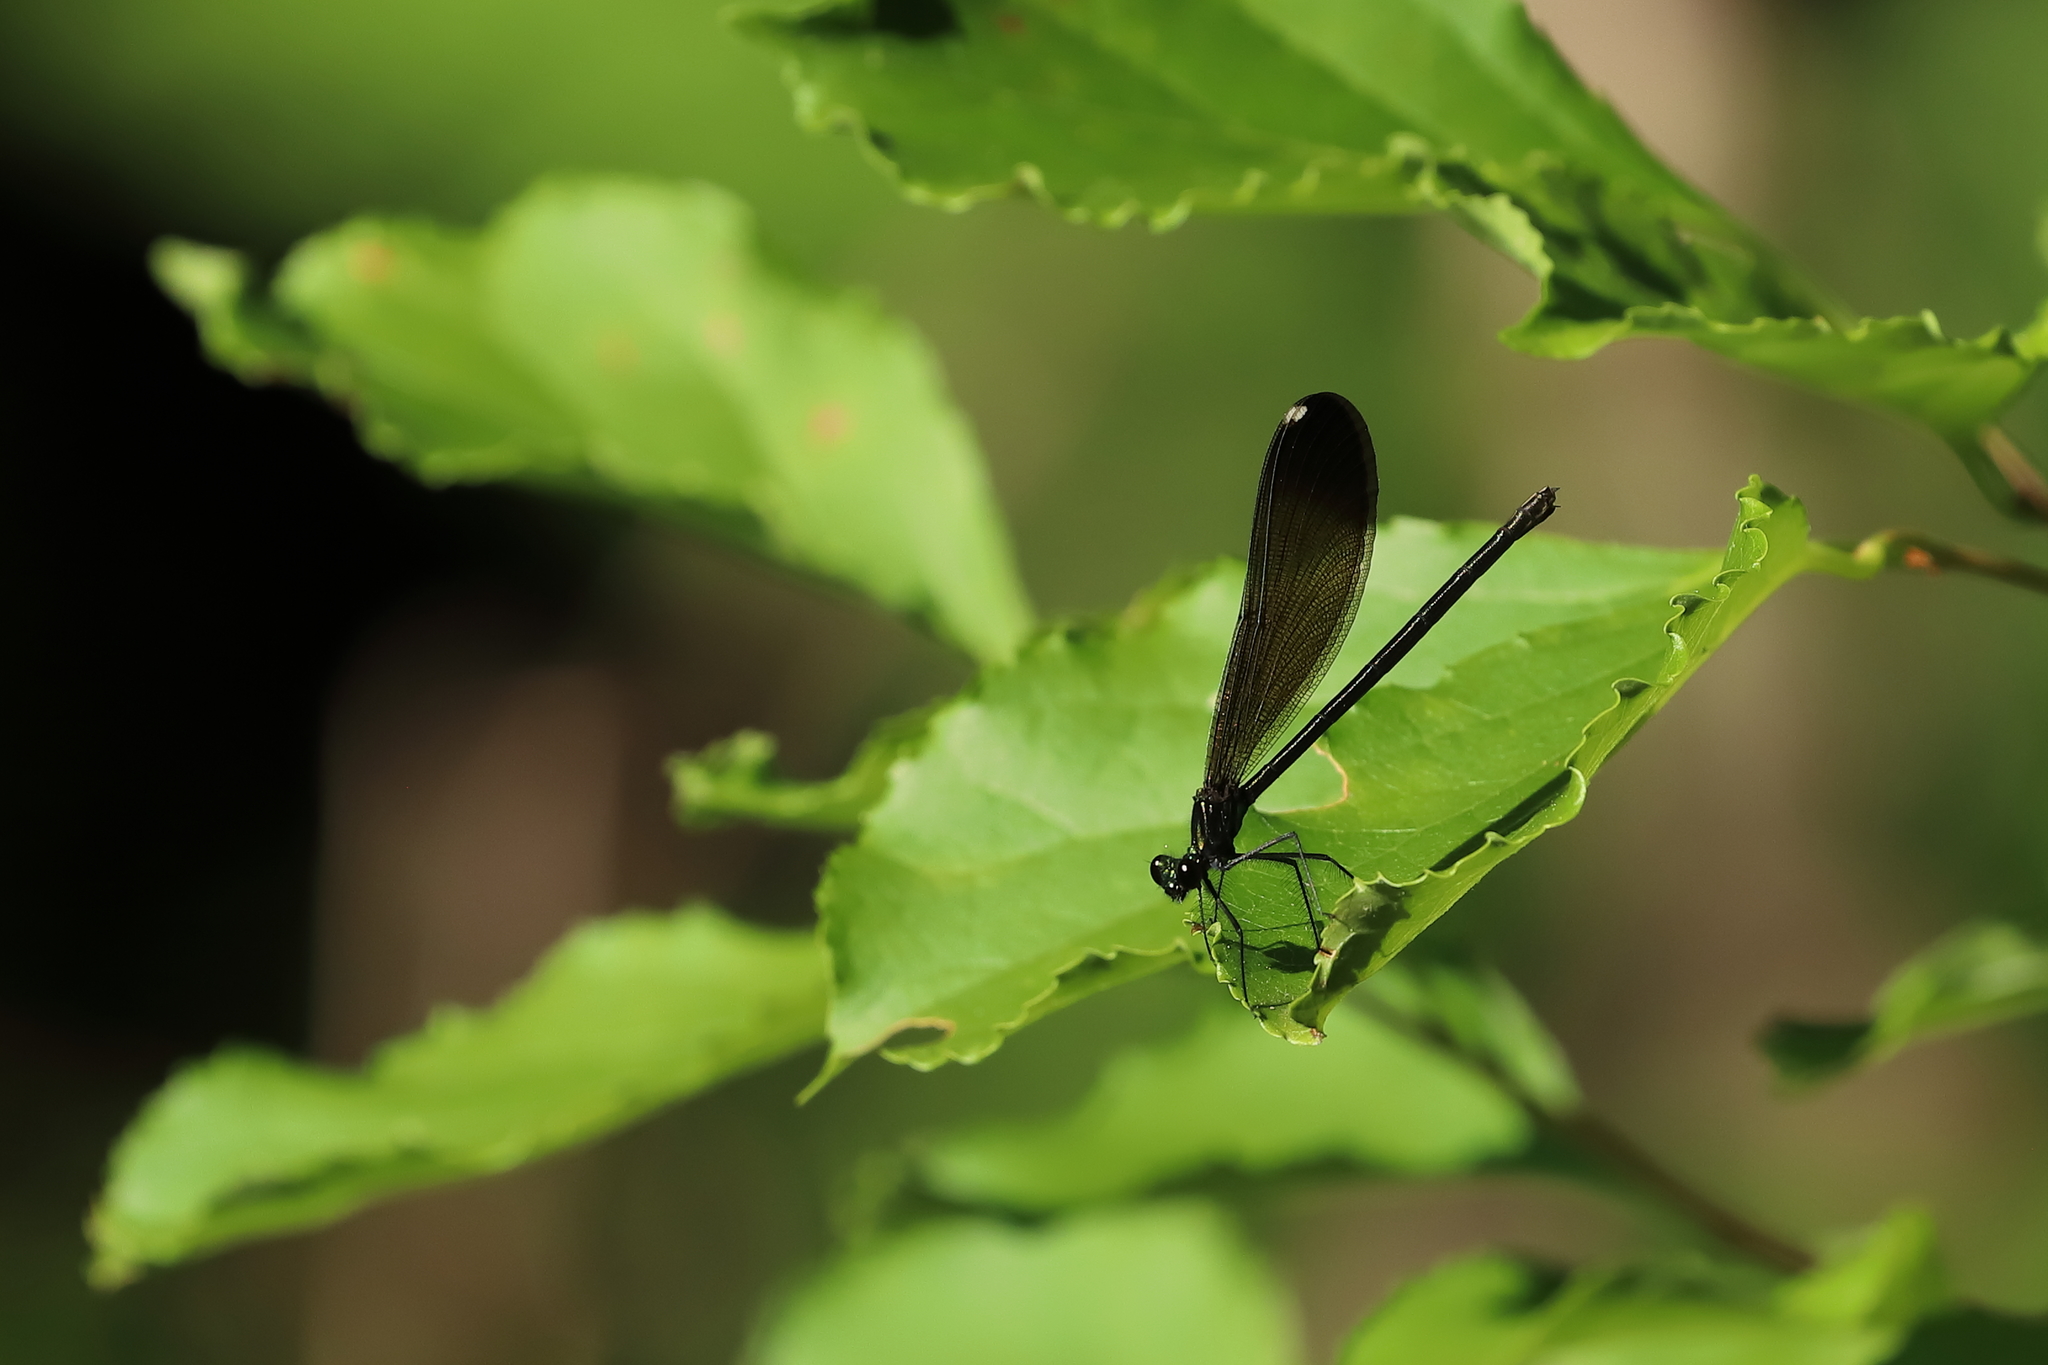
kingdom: Animalia
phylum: Arthropoda
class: Insecta
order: Odonata
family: Calopterygidae
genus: Calopteryx
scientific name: Calopteryx maculata
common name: Ebony jewelwing
